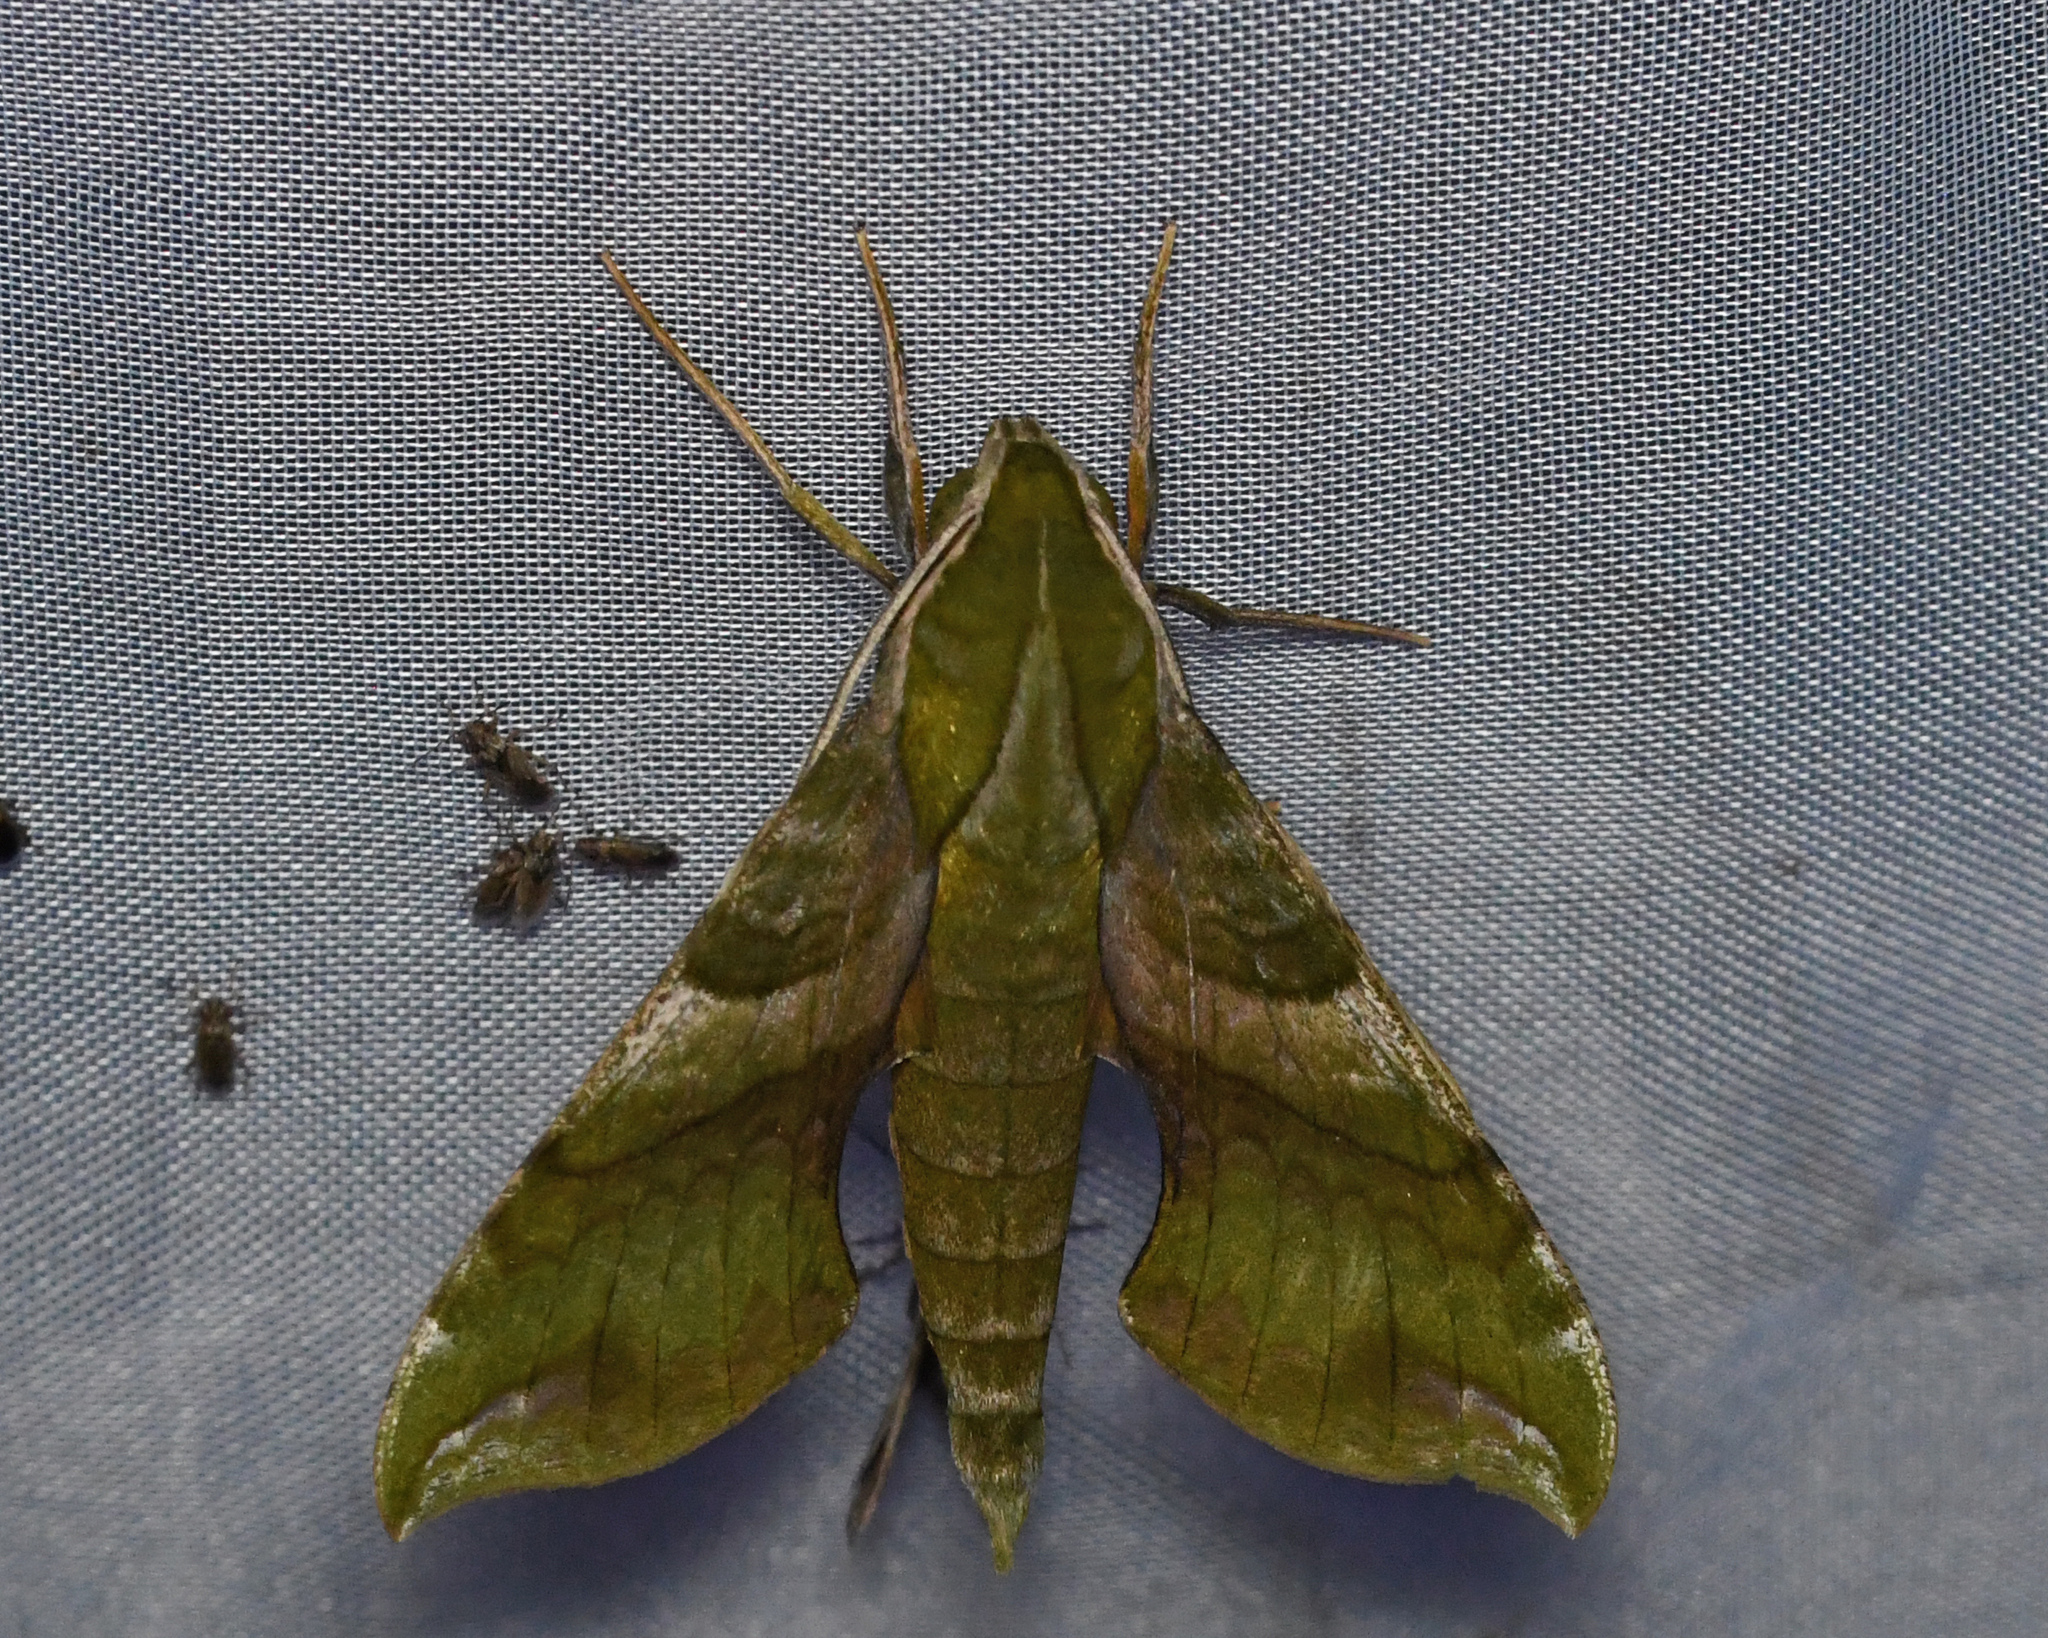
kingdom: Animalia
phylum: Arthropoda
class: Insecta
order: Lepidoptera
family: Sphingidae
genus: Xylophanes
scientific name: Xylophanes pluto
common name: Pluto sphinx
